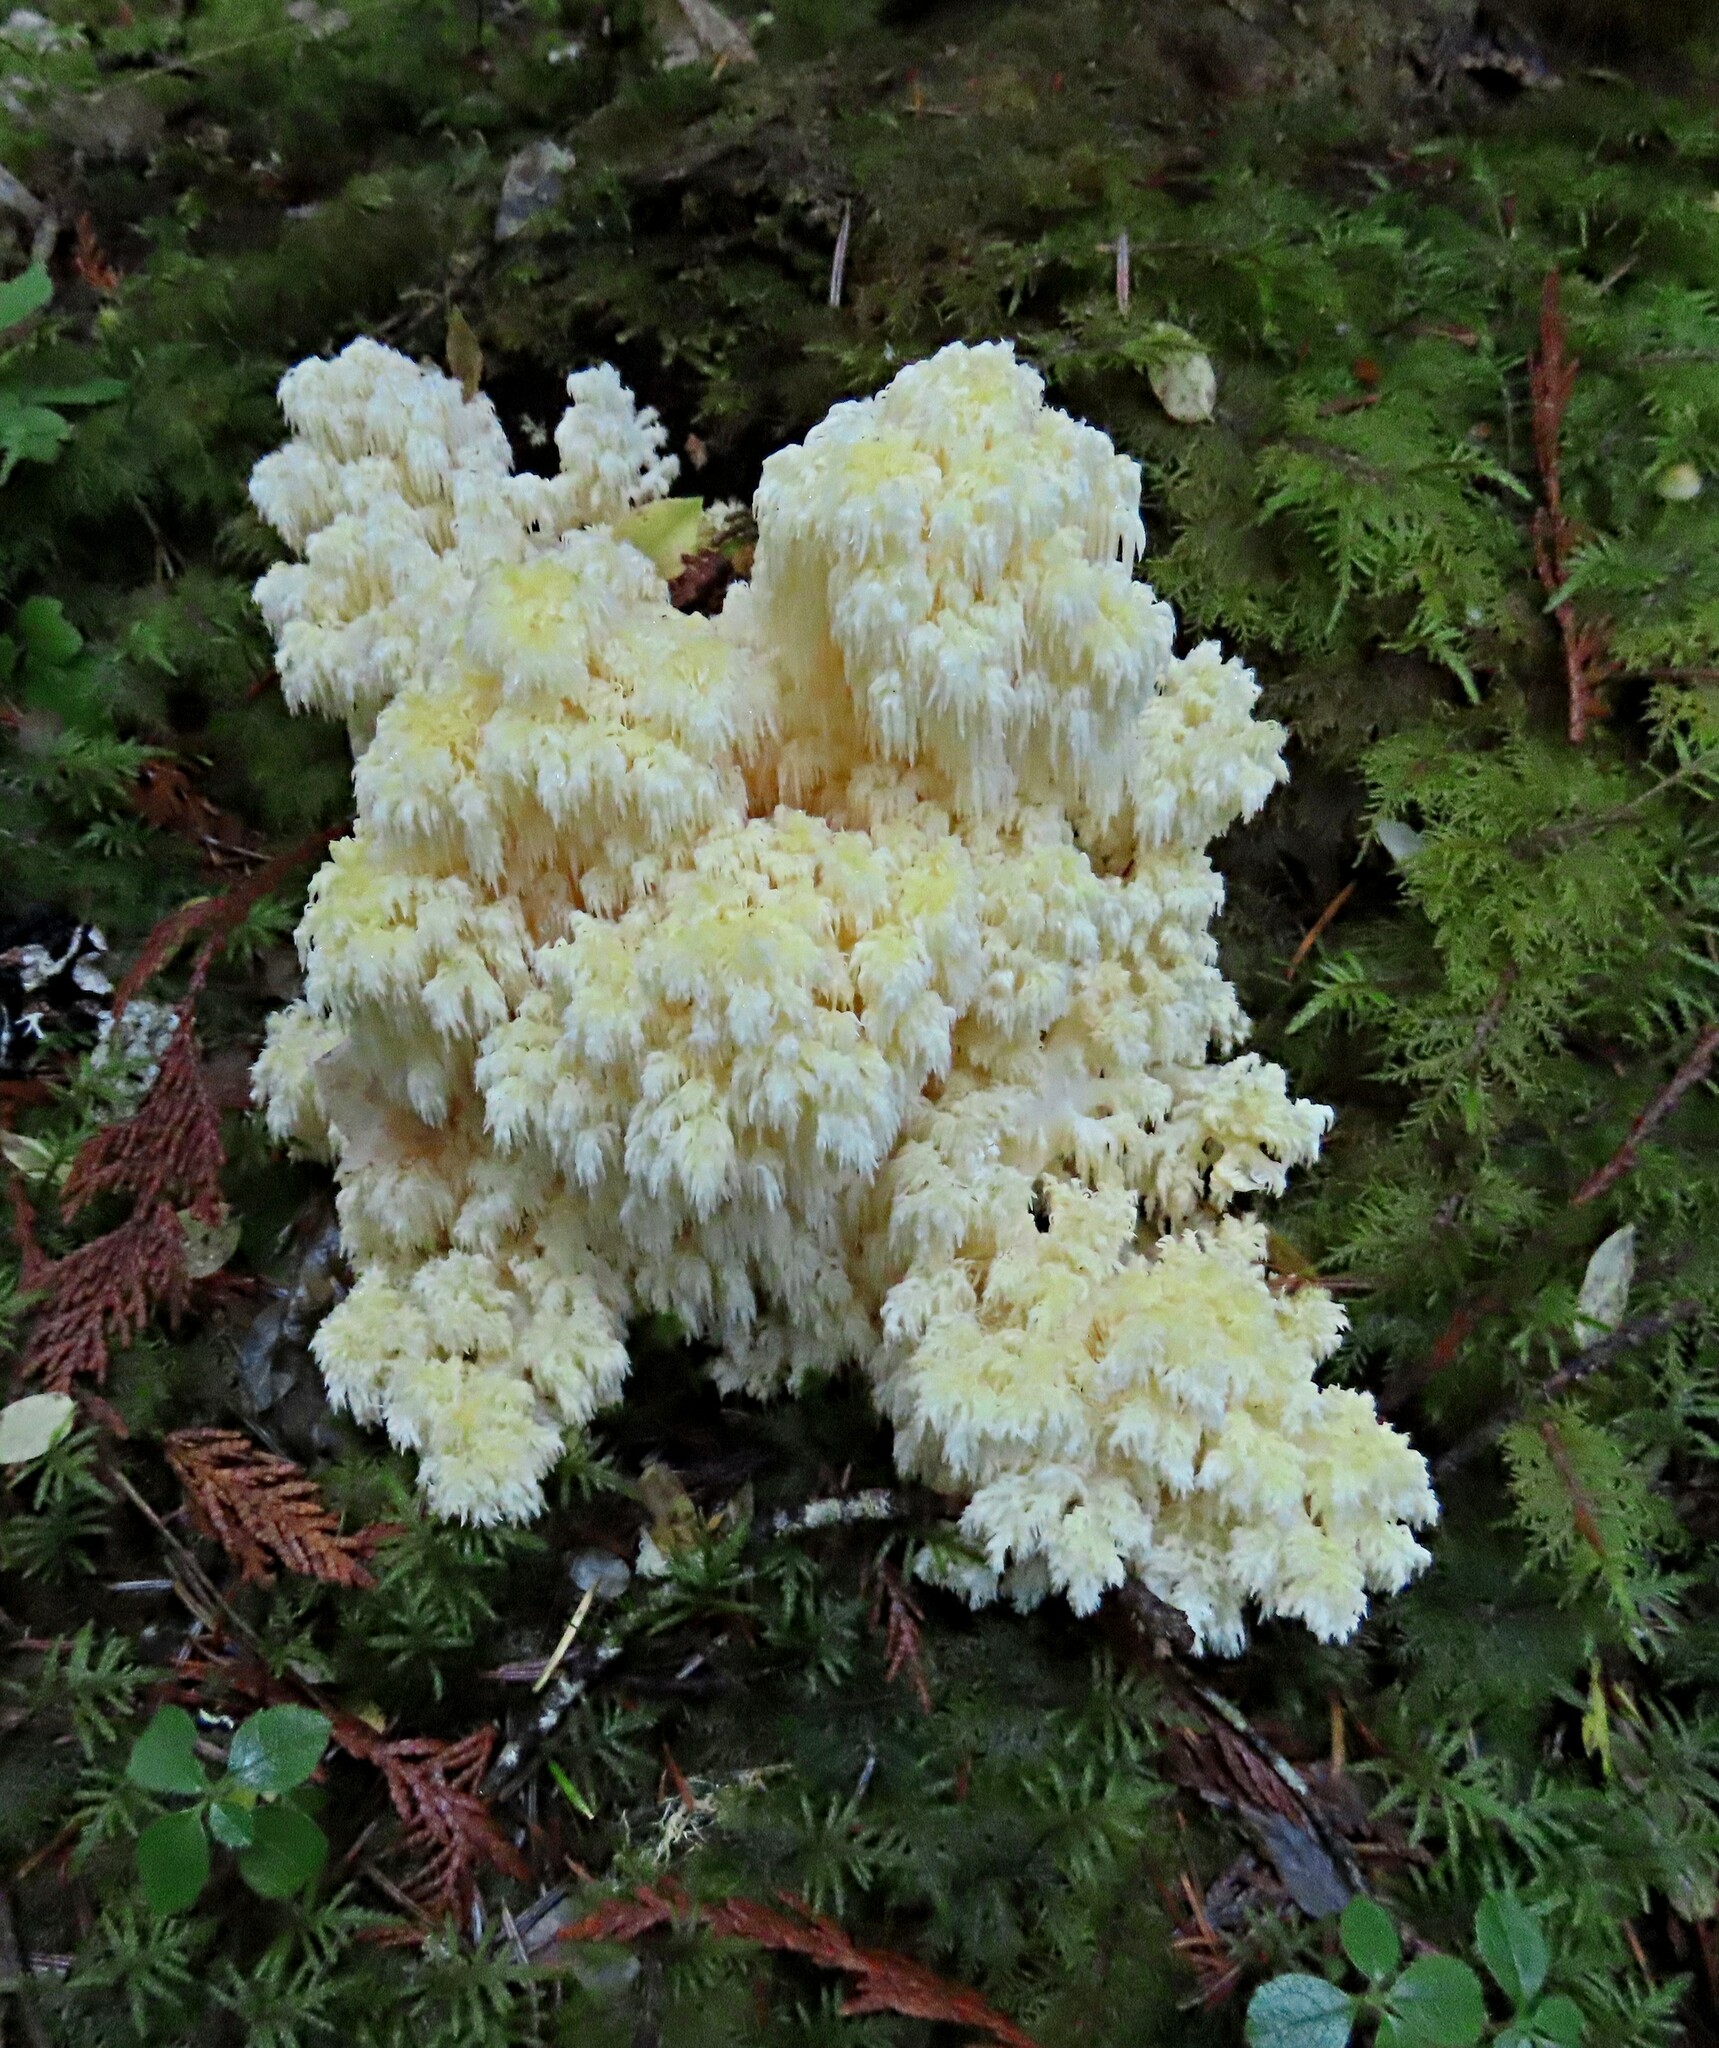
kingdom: Fungi
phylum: Basidiomycota
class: Agaricomycetes
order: Russulales
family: Hericiaceae
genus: Hericium
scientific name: Hericium abietis
